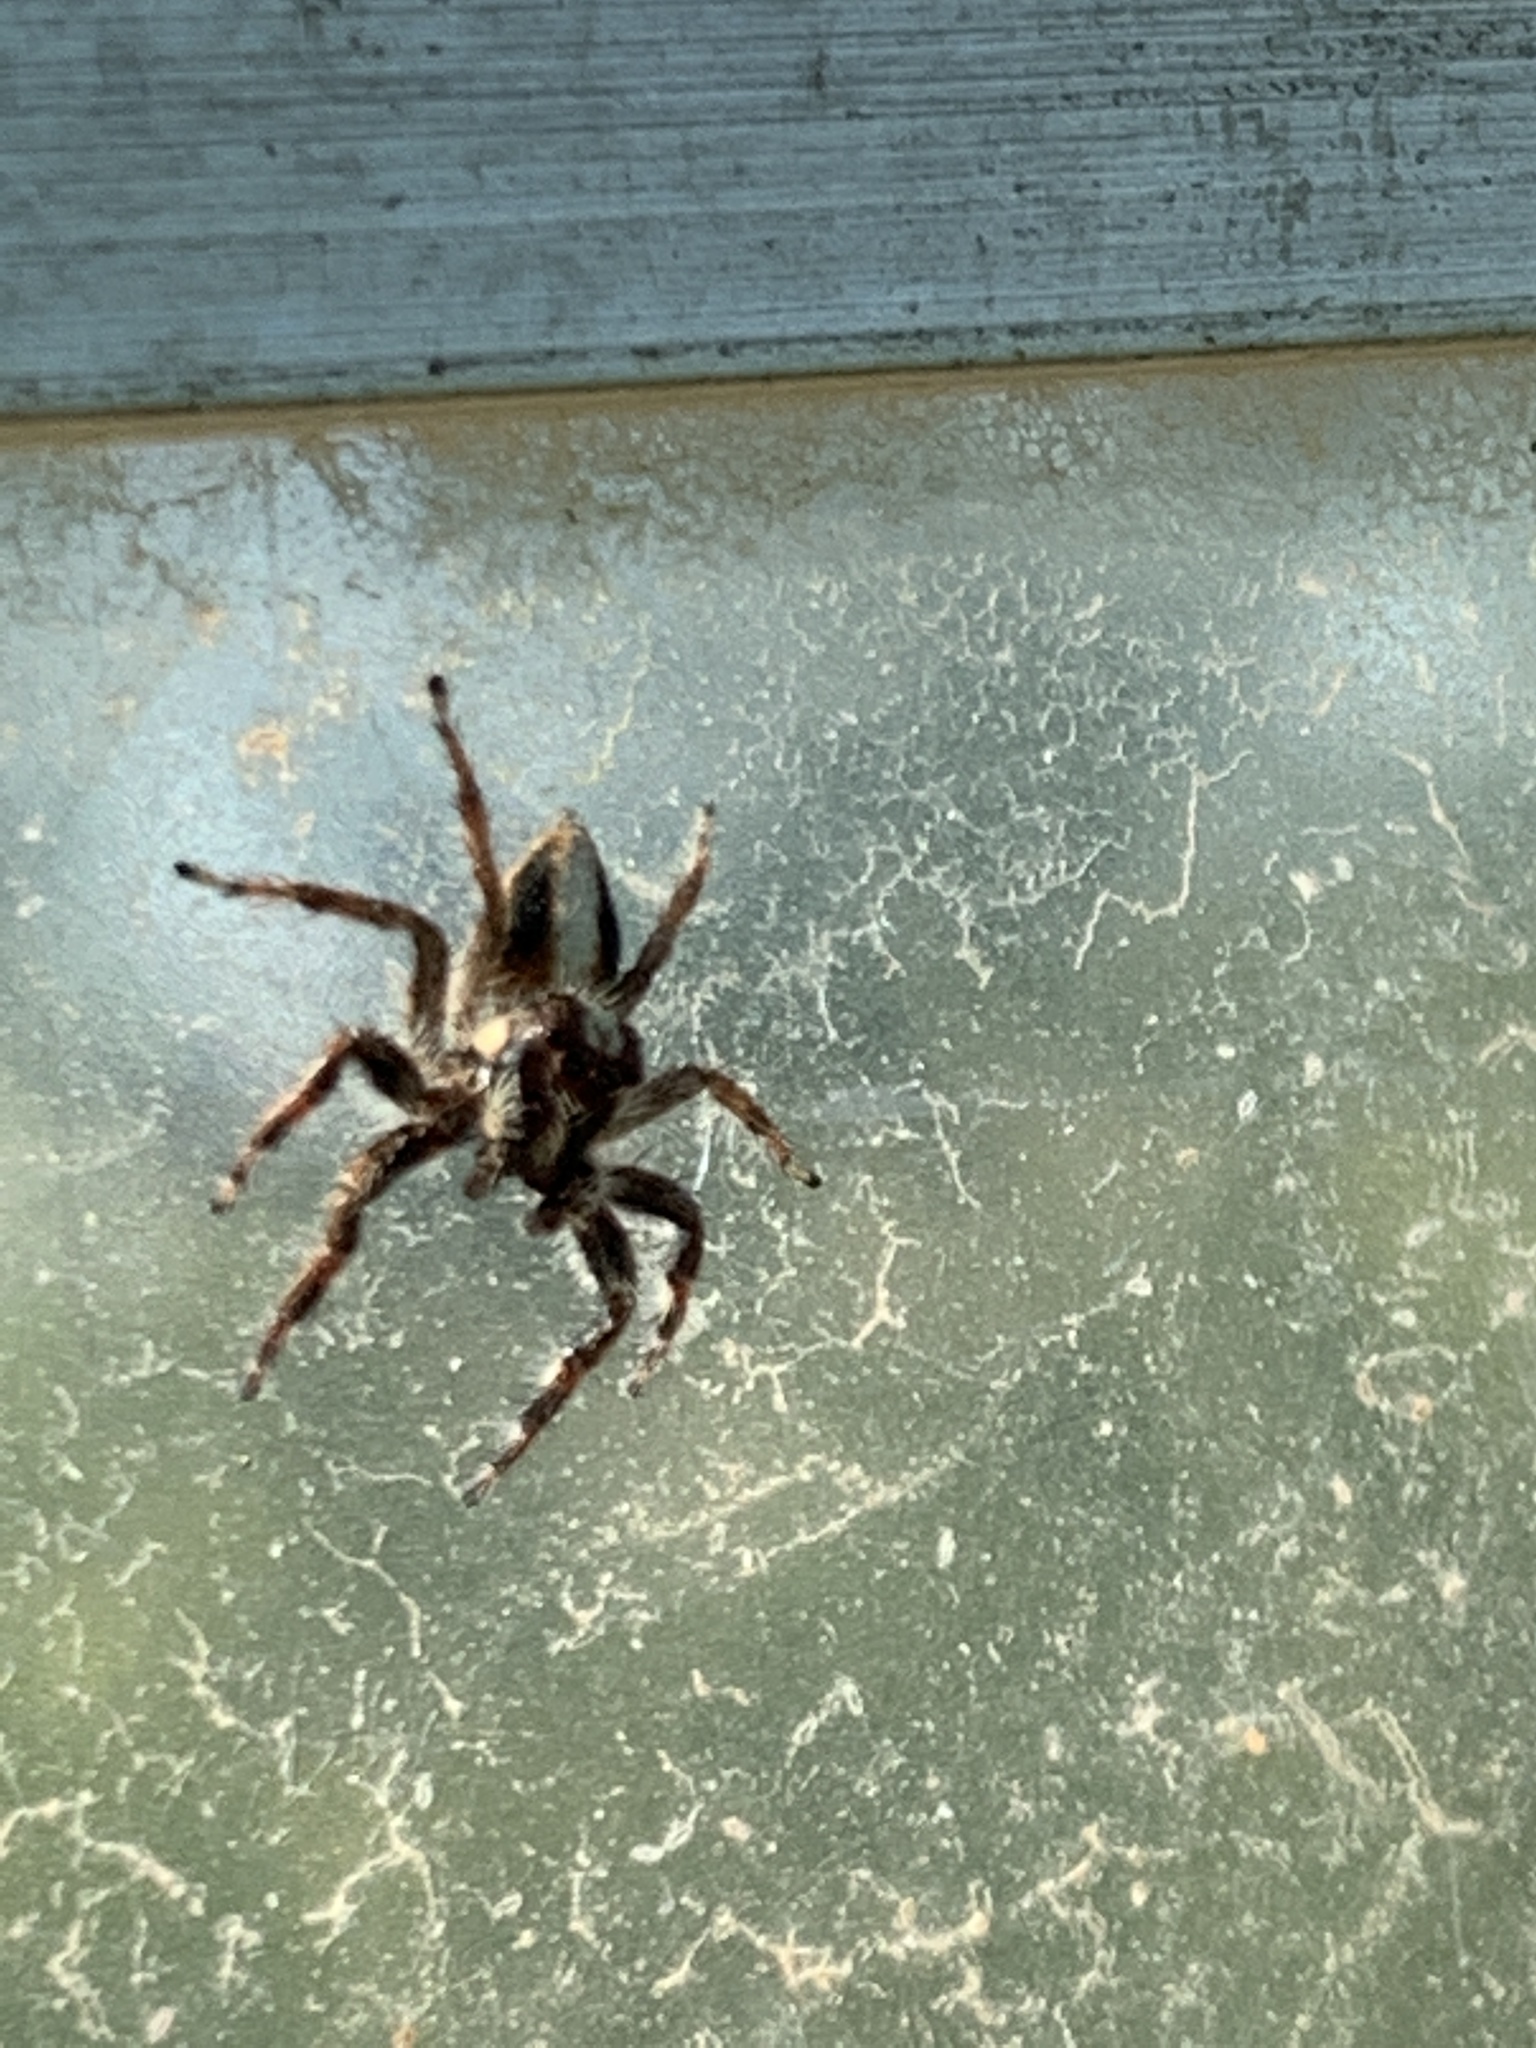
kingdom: Animalia
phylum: Arthropoda
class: Arachnida
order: Araneae
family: Salticidae
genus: Megafreya
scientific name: Megafreya sutrix
